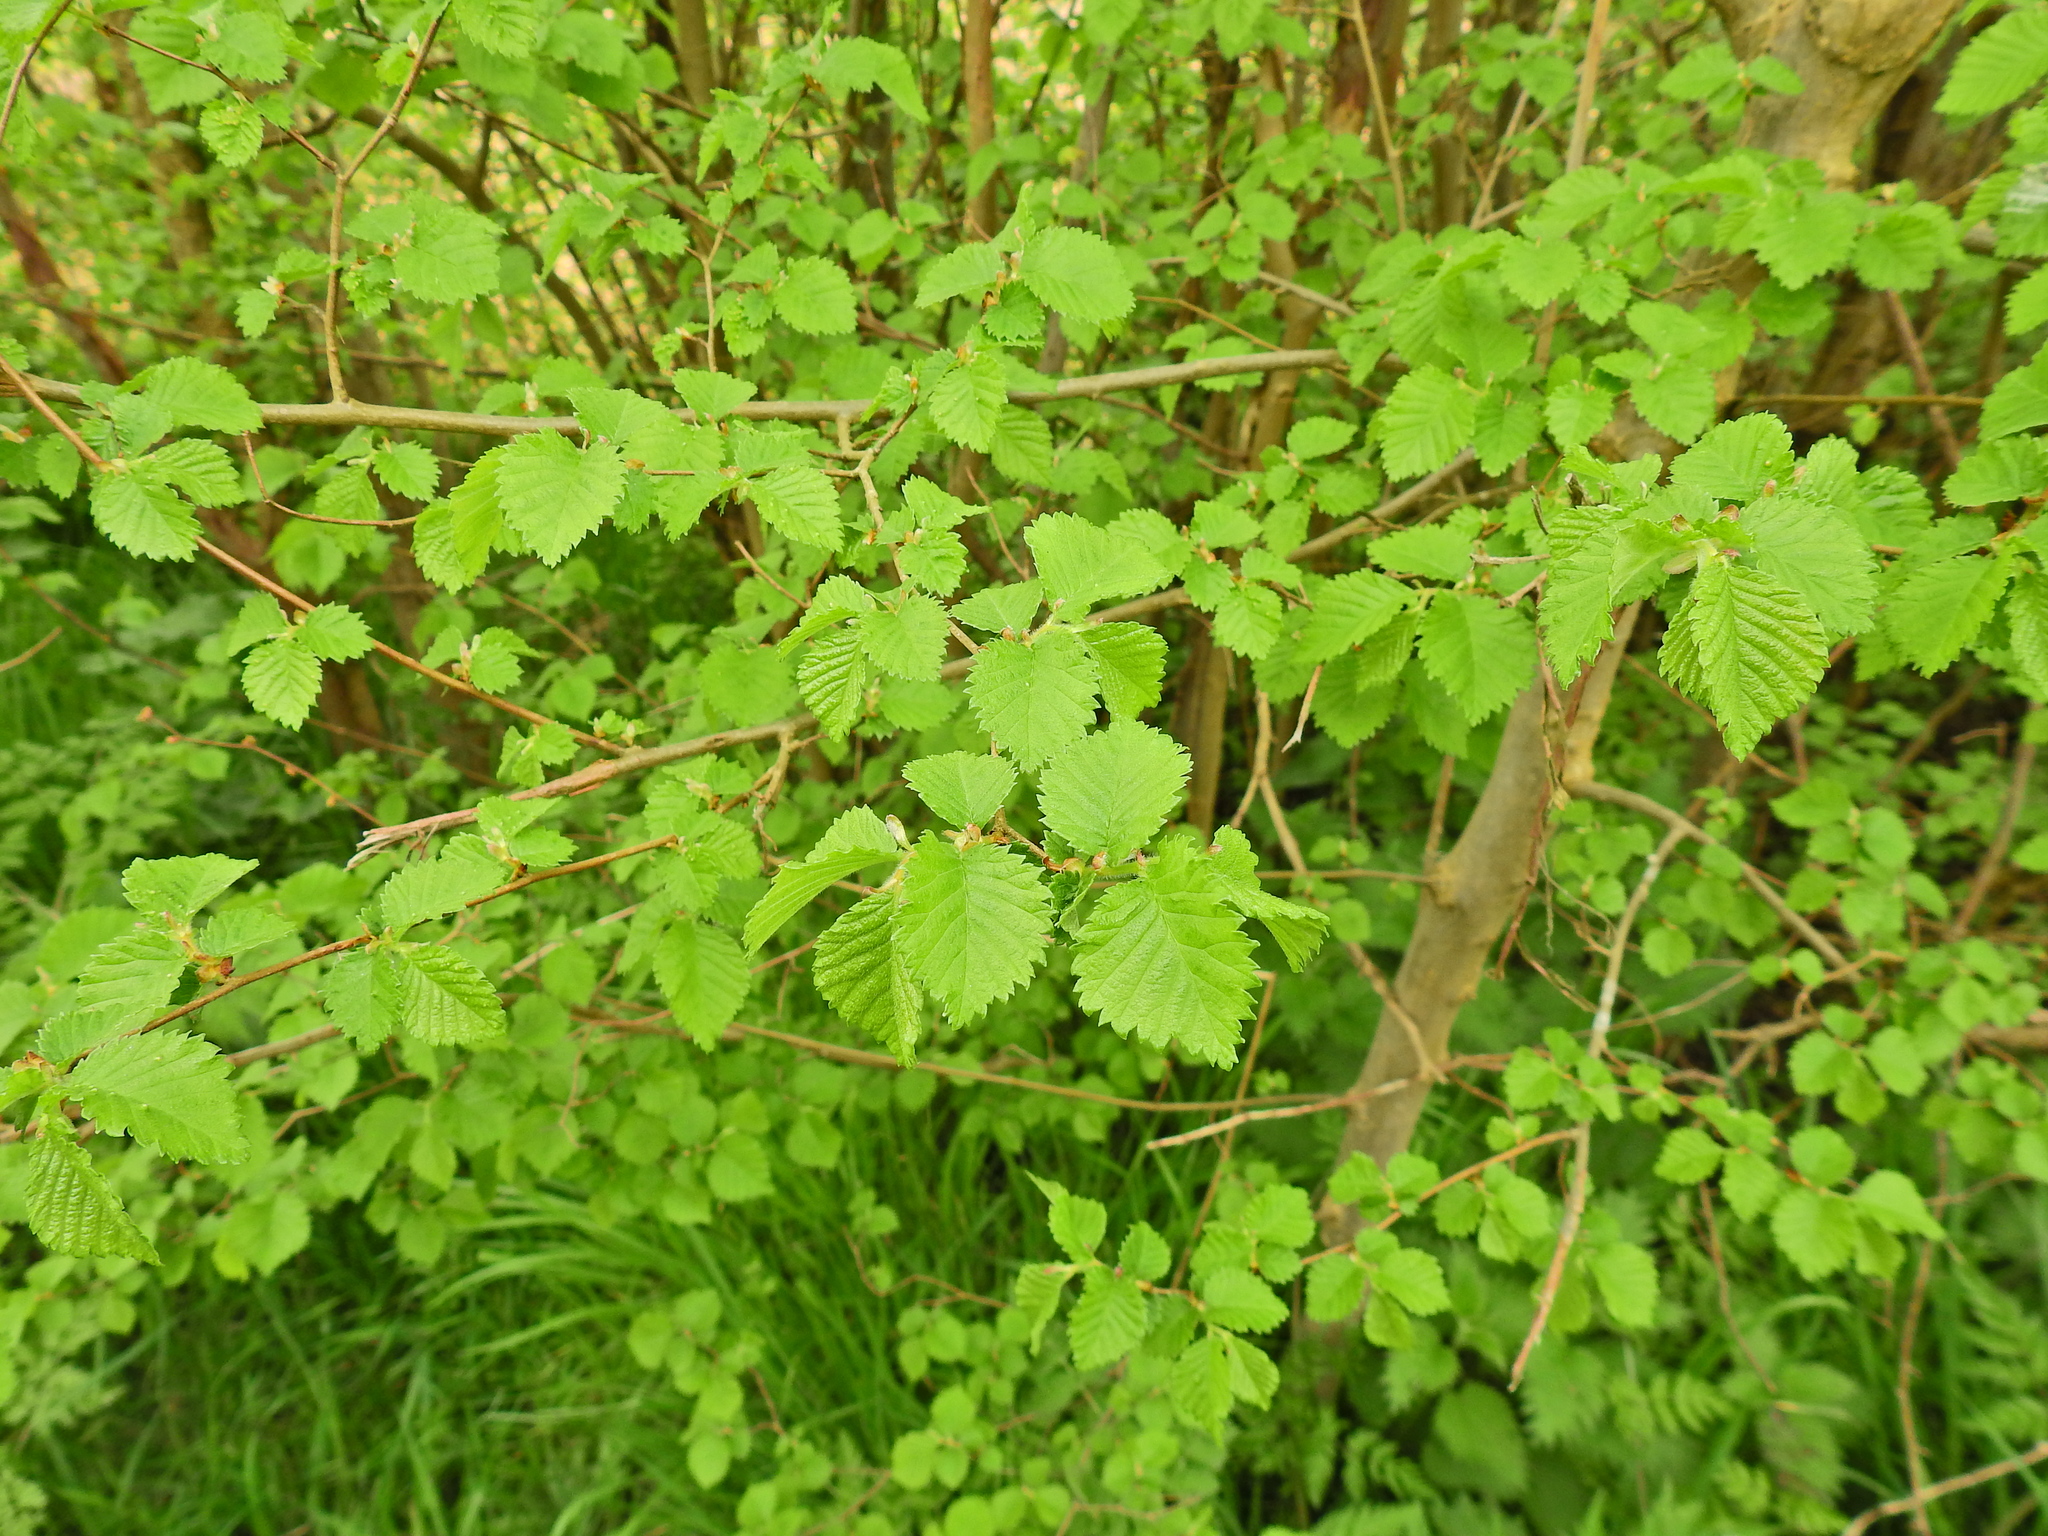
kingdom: Plantae
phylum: Tracheophyta
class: Magnoliopsida
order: Rosales
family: Ulmaceae
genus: Ulmus
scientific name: Ulmus minor
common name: Small-leaved elm
